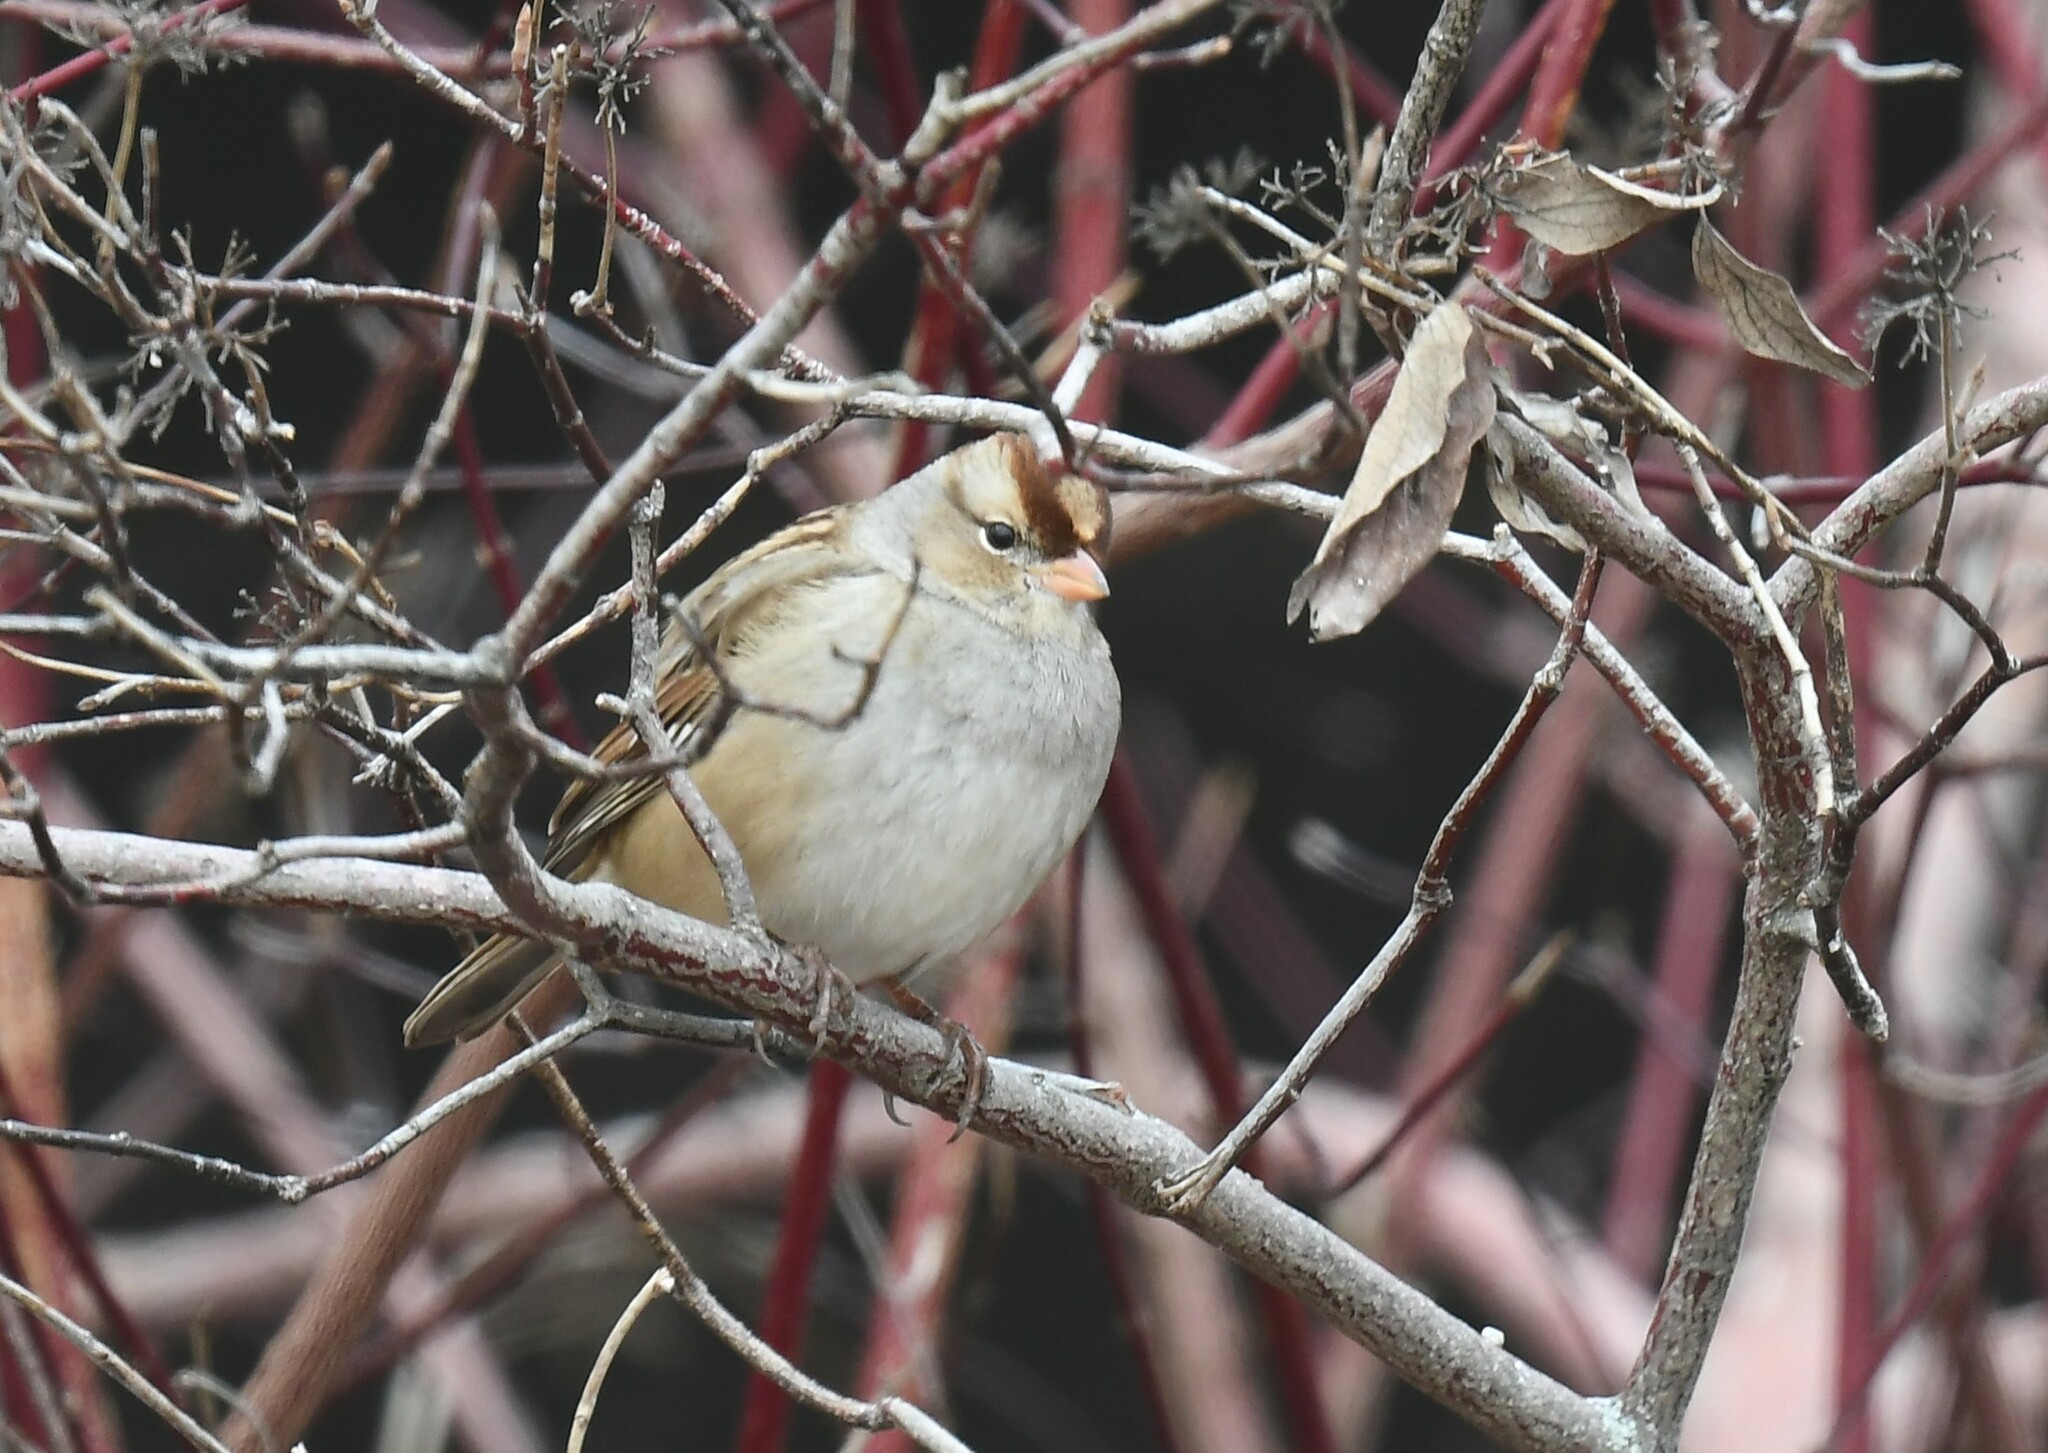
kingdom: Animalia
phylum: Chordata
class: Aves
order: Passeriformes
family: Passerellidae
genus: Zonotrichia
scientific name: Zonotrichia leucophrys
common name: White-crowned sparrow
